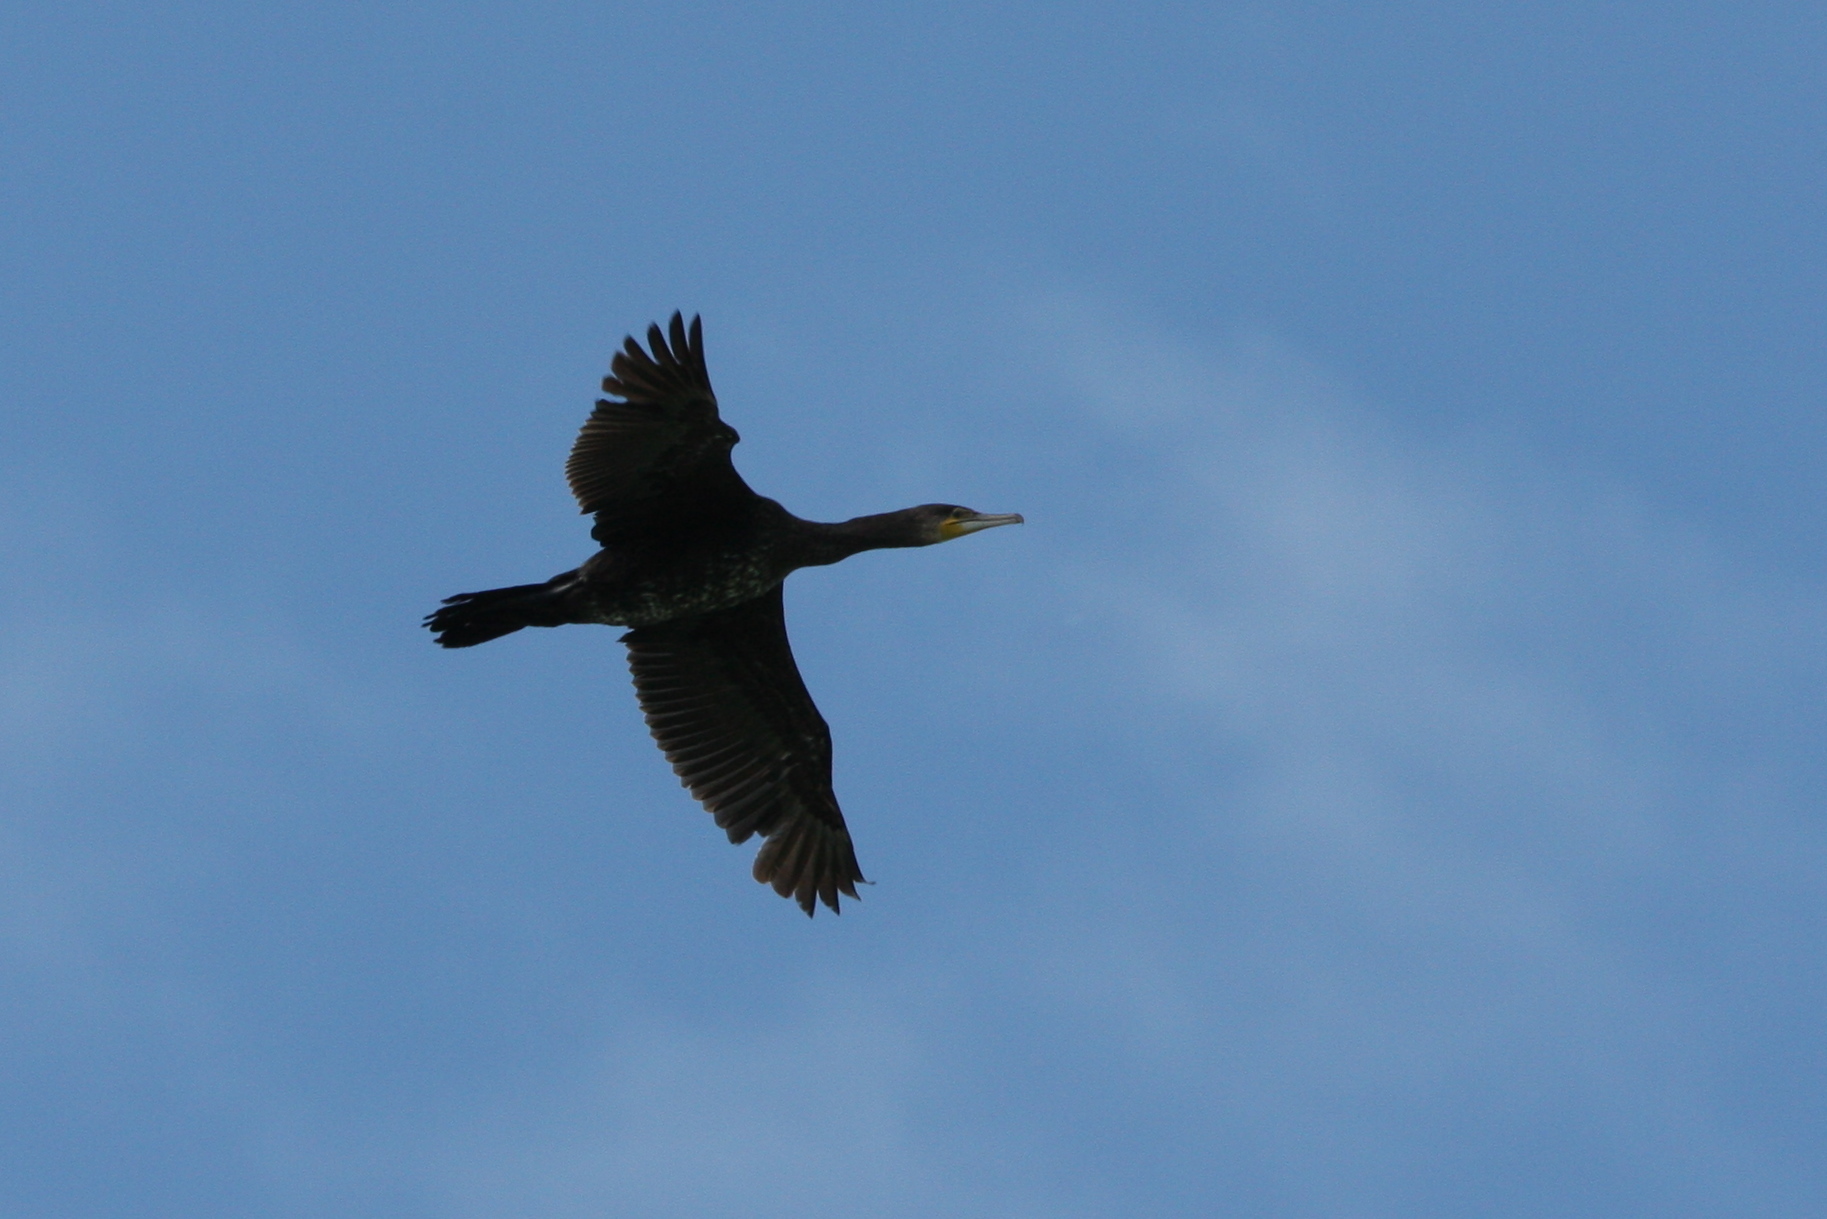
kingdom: Animalia
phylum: Chordata
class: Aves
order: Suliformes
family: Phalacrocoracidae
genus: Phalacrocorax
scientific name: Phalacrocorax carbo
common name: Great cormorant
